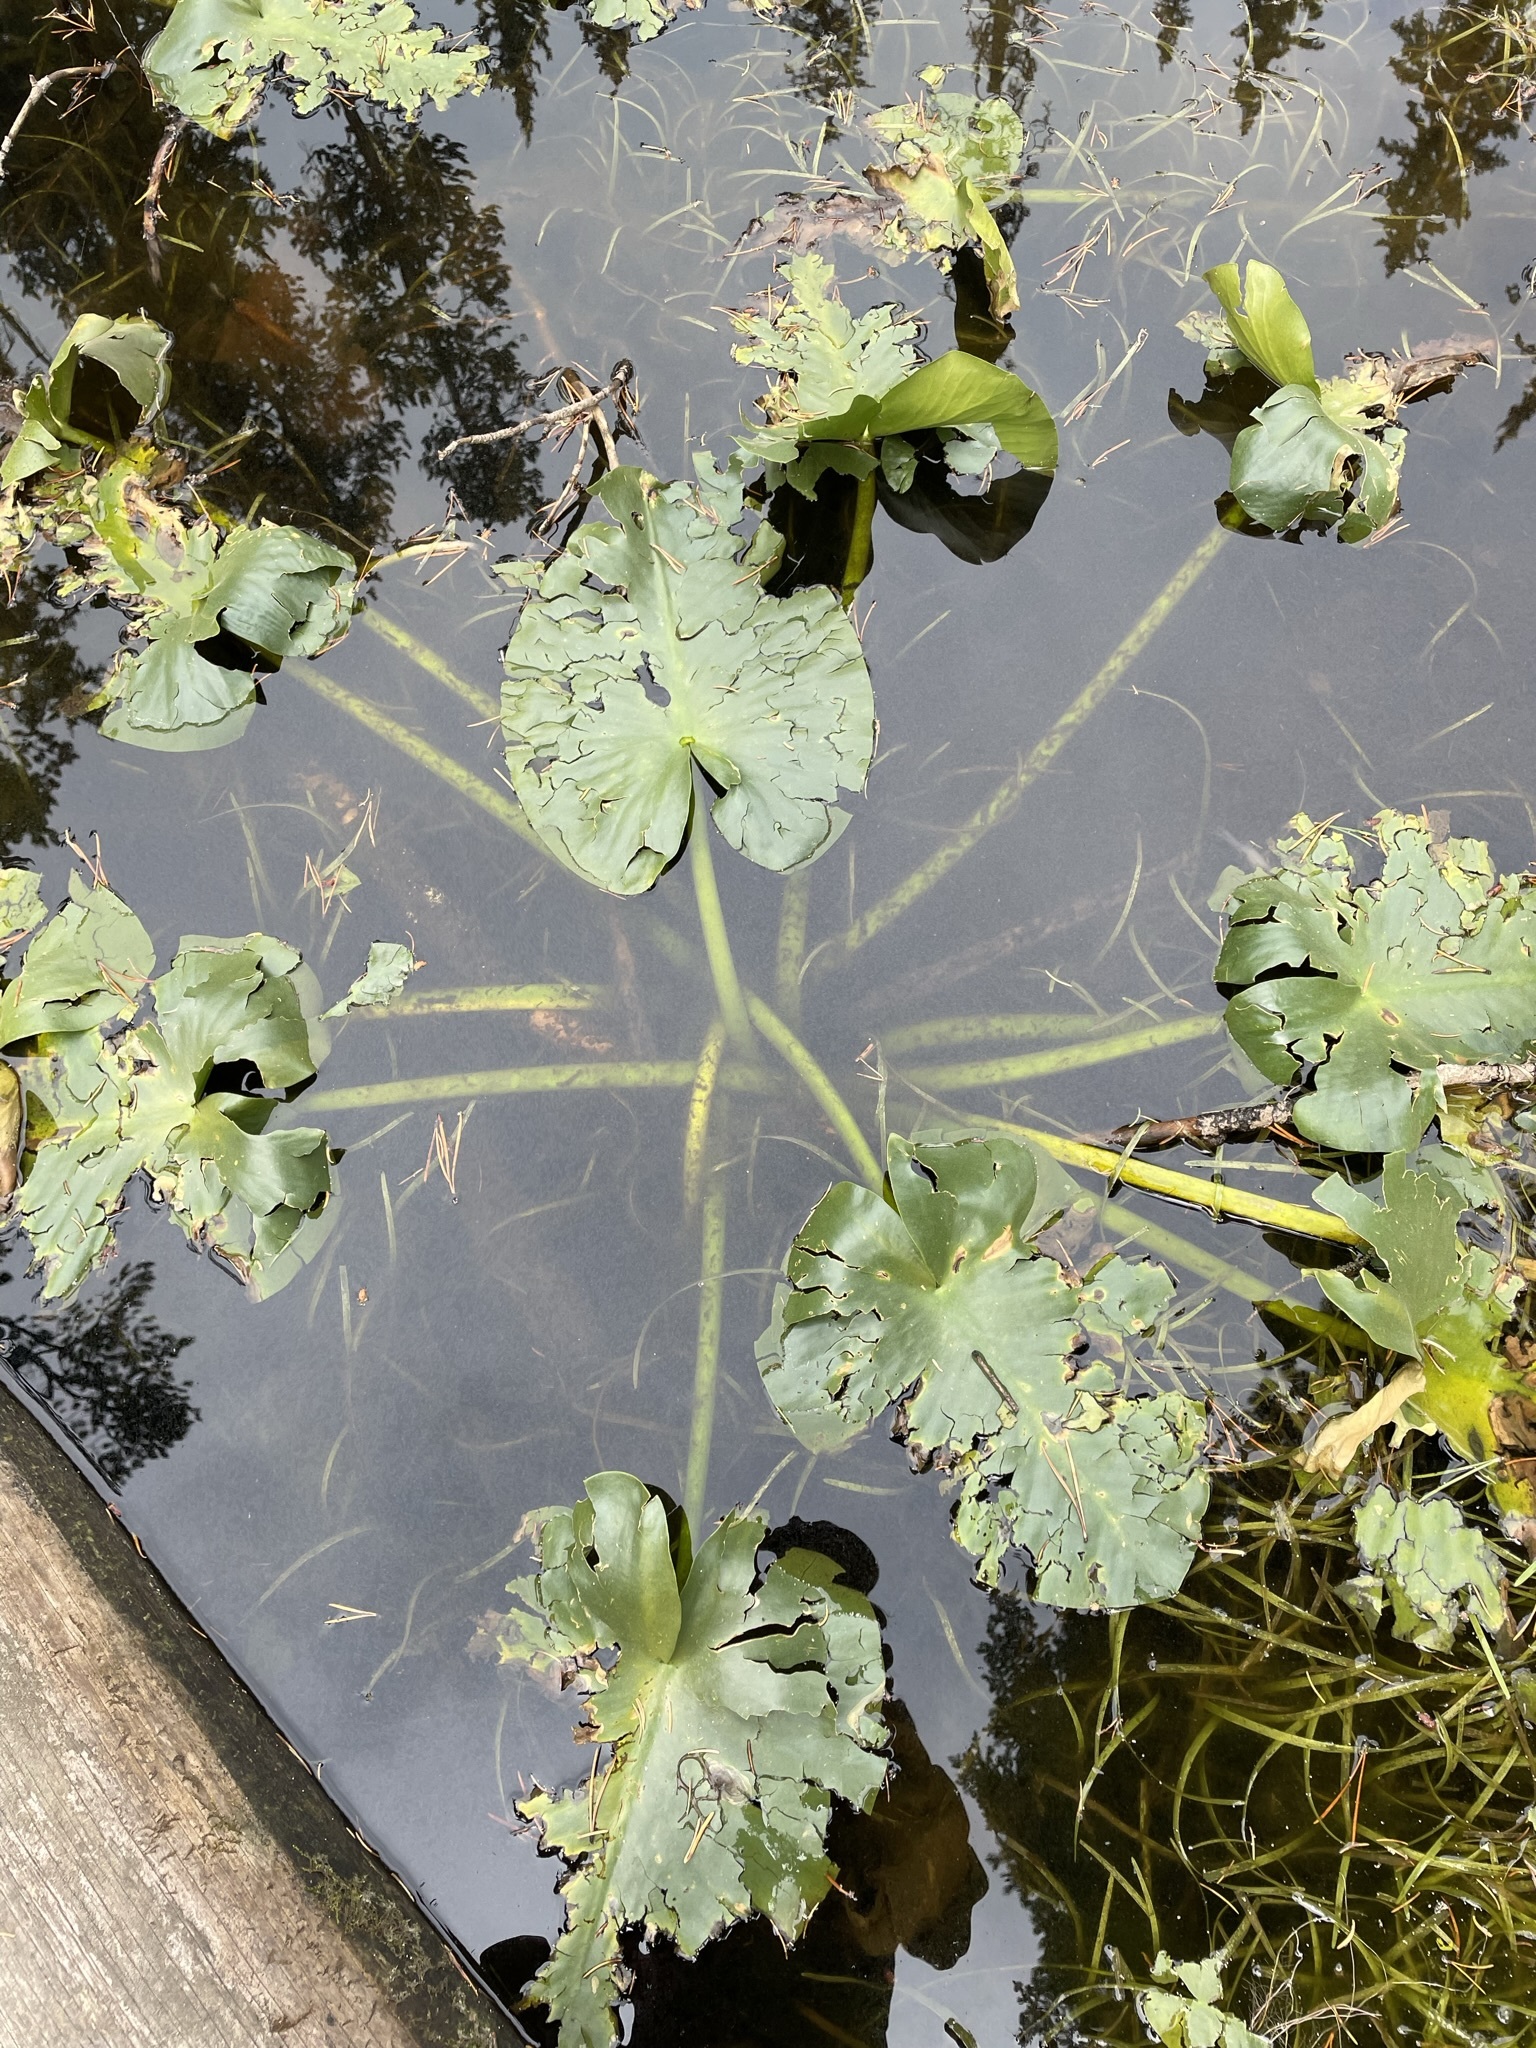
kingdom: Plantae
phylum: Tracheophyta
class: Magnoliopsida
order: Nymphaeales
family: Nymphaeaceae
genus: Nuphar
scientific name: Nuphar polysepala
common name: Rocky mountain cow-lily
